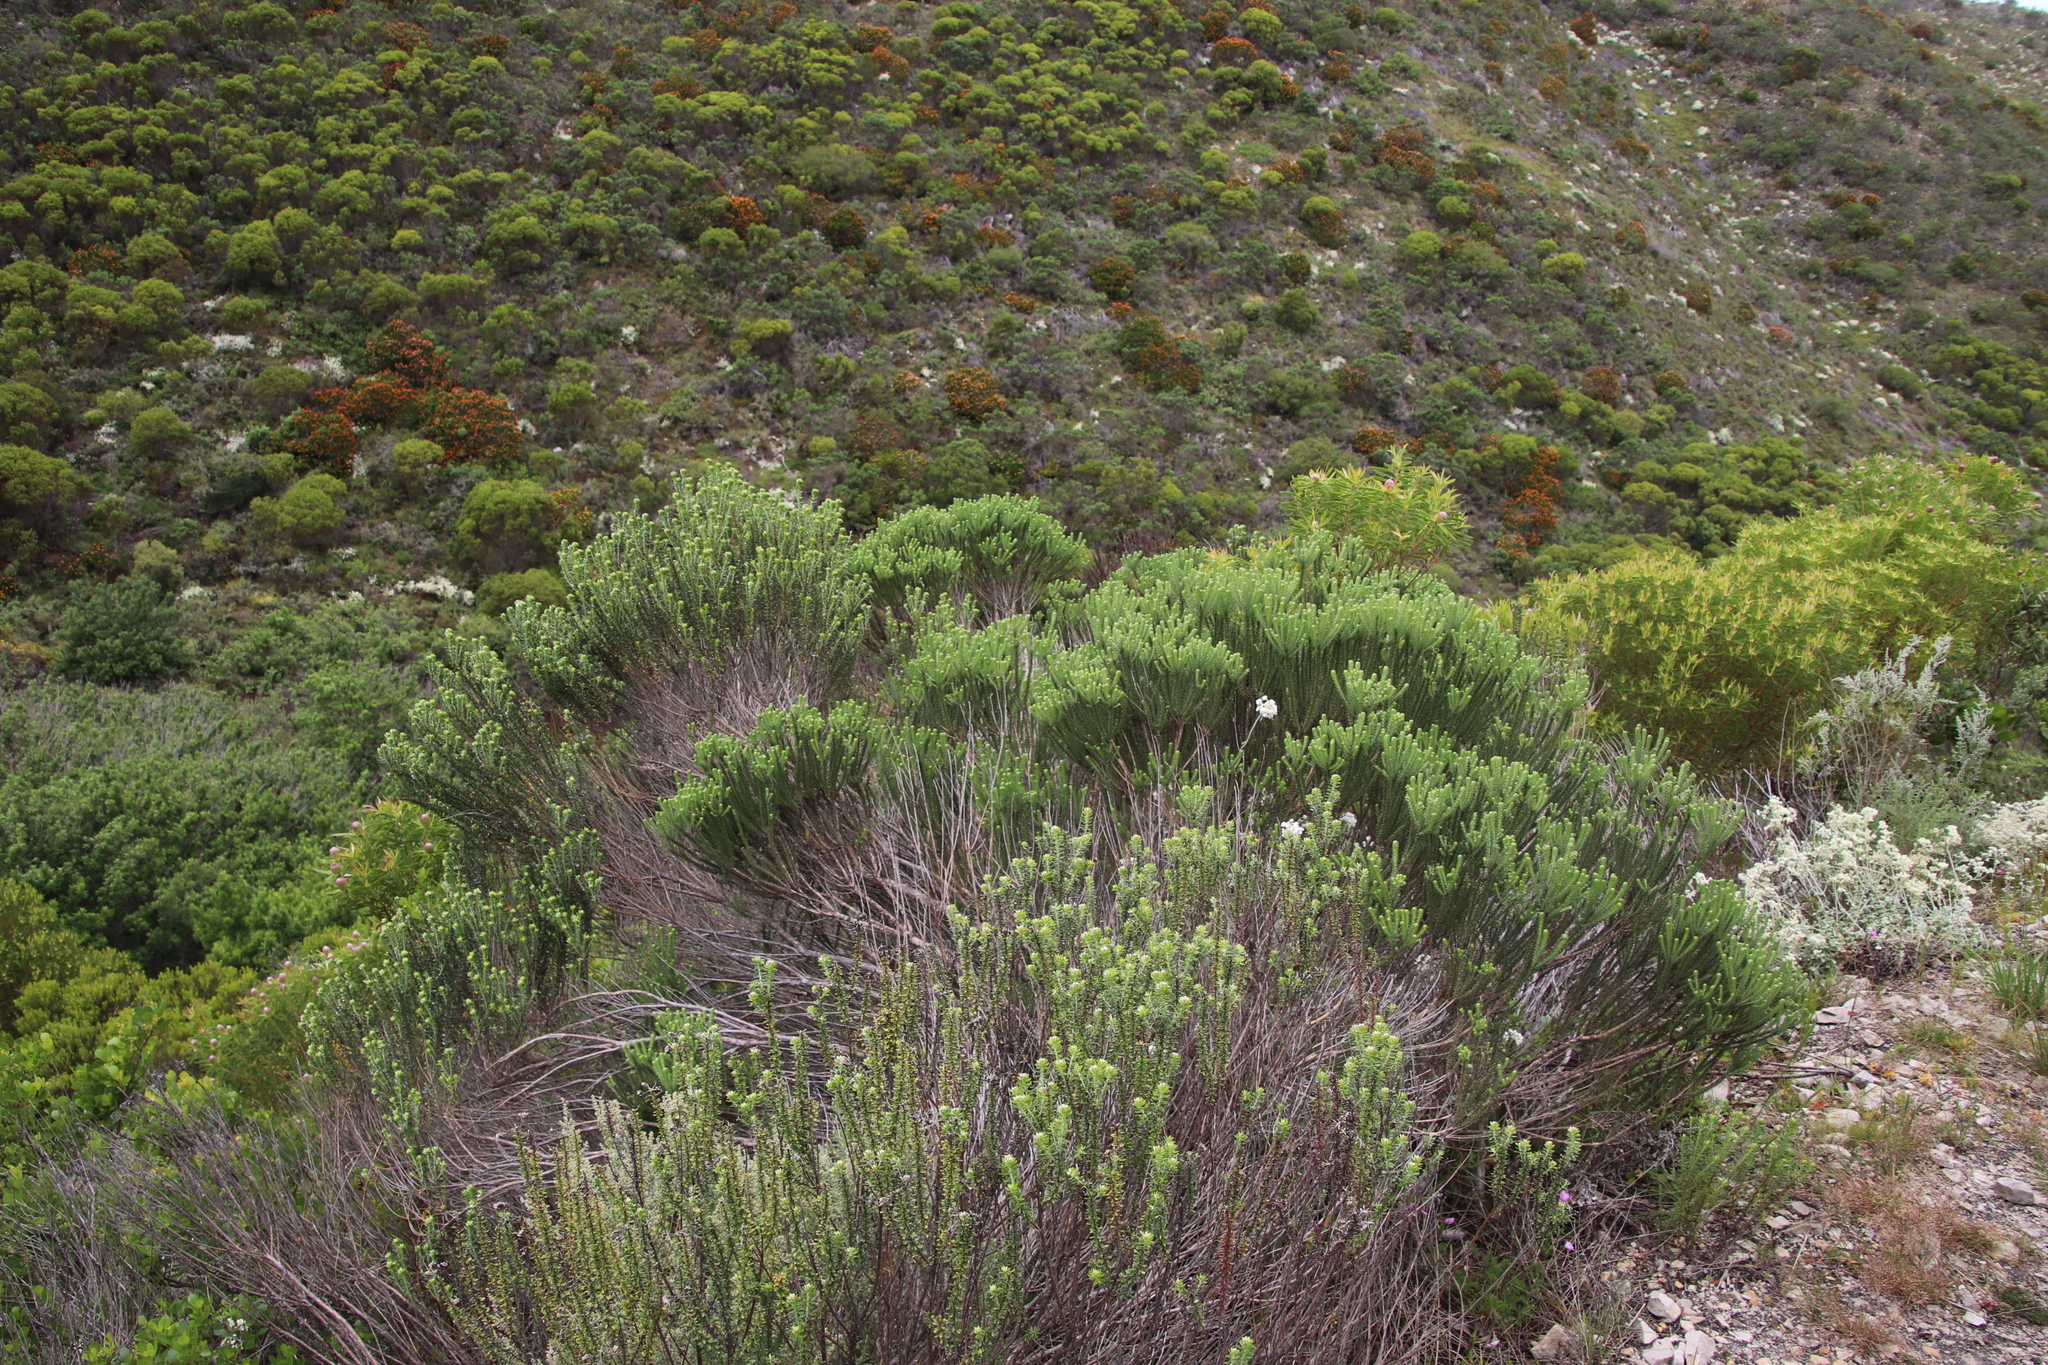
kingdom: Plantae
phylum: Tracheophyta
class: Magnoliopsida
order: Asterales
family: Asteraceae
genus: Metalasia
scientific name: Metalasia muricata
